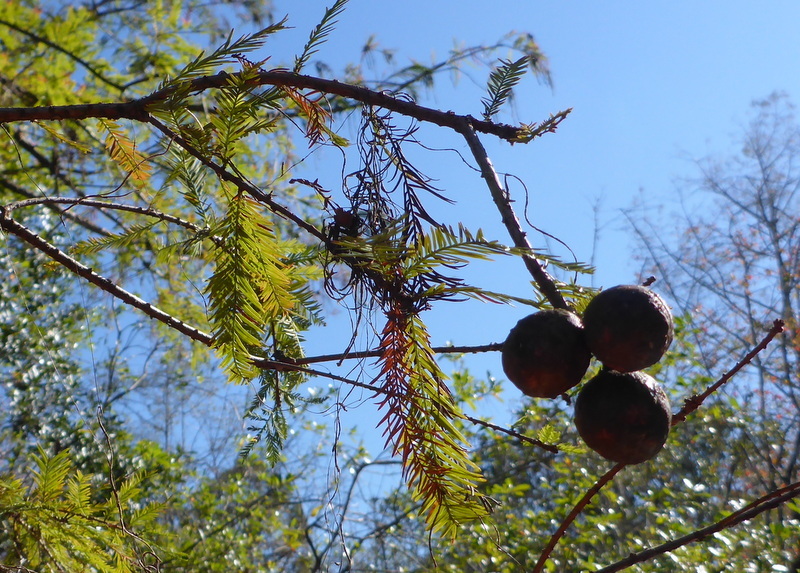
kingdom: Plantae
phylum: Tracheophyta
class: Pinopsida
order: Pinales
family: Cupressaceae
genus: Taxodium
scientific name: Taxodium distichum
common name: Bald cypress
